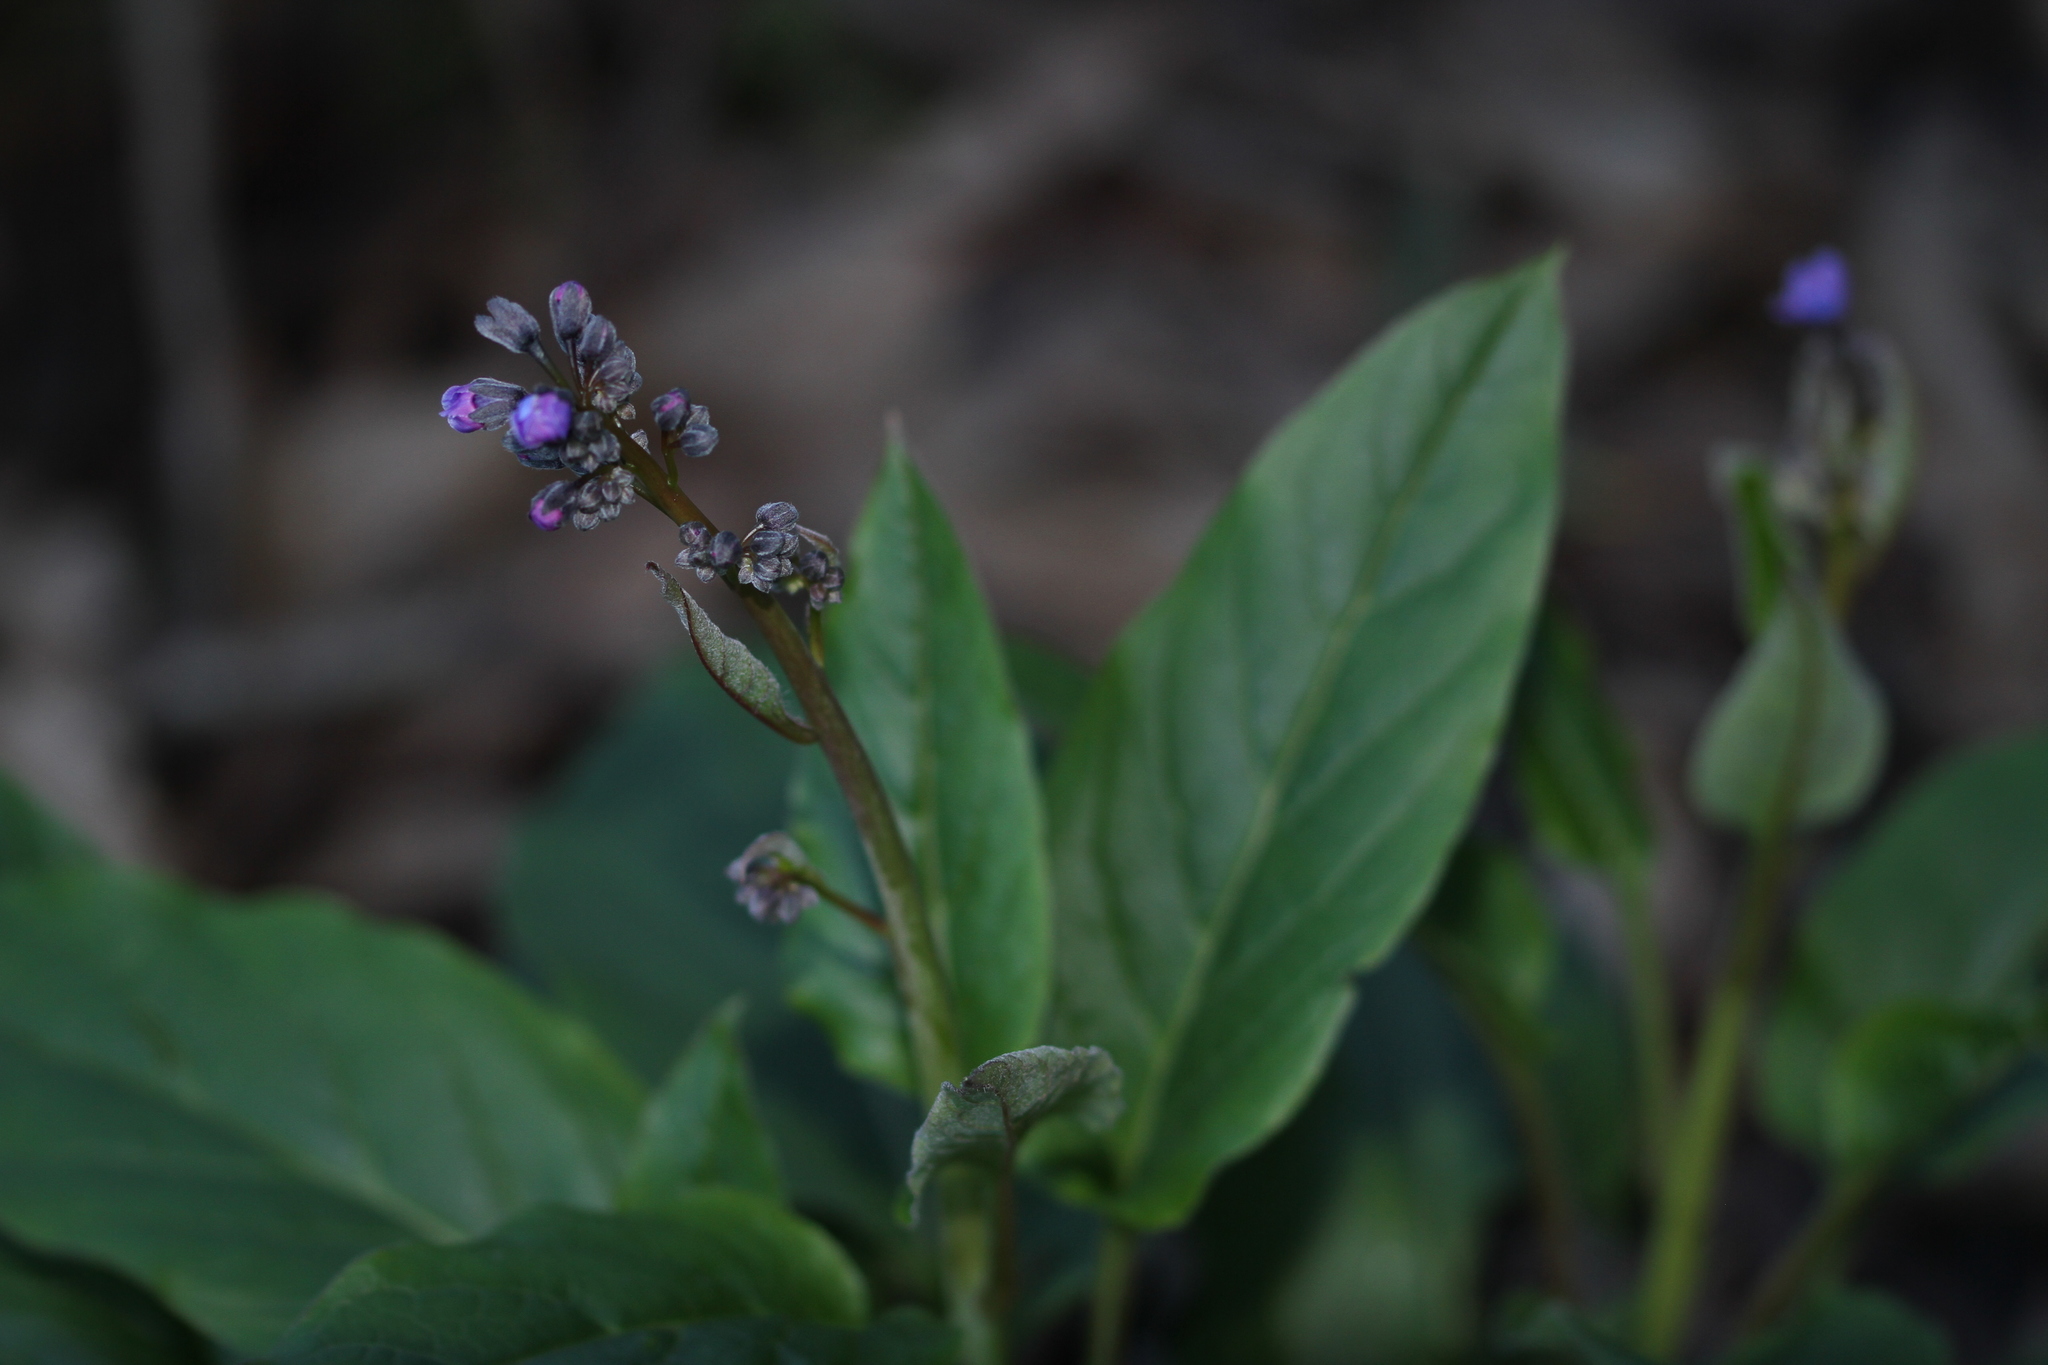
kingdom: Plantae
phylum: Tracheophyta
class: Magnoliopsida
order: Boraginales
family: Boraginaceae
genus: Adelinia
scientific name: Adelinia grande
